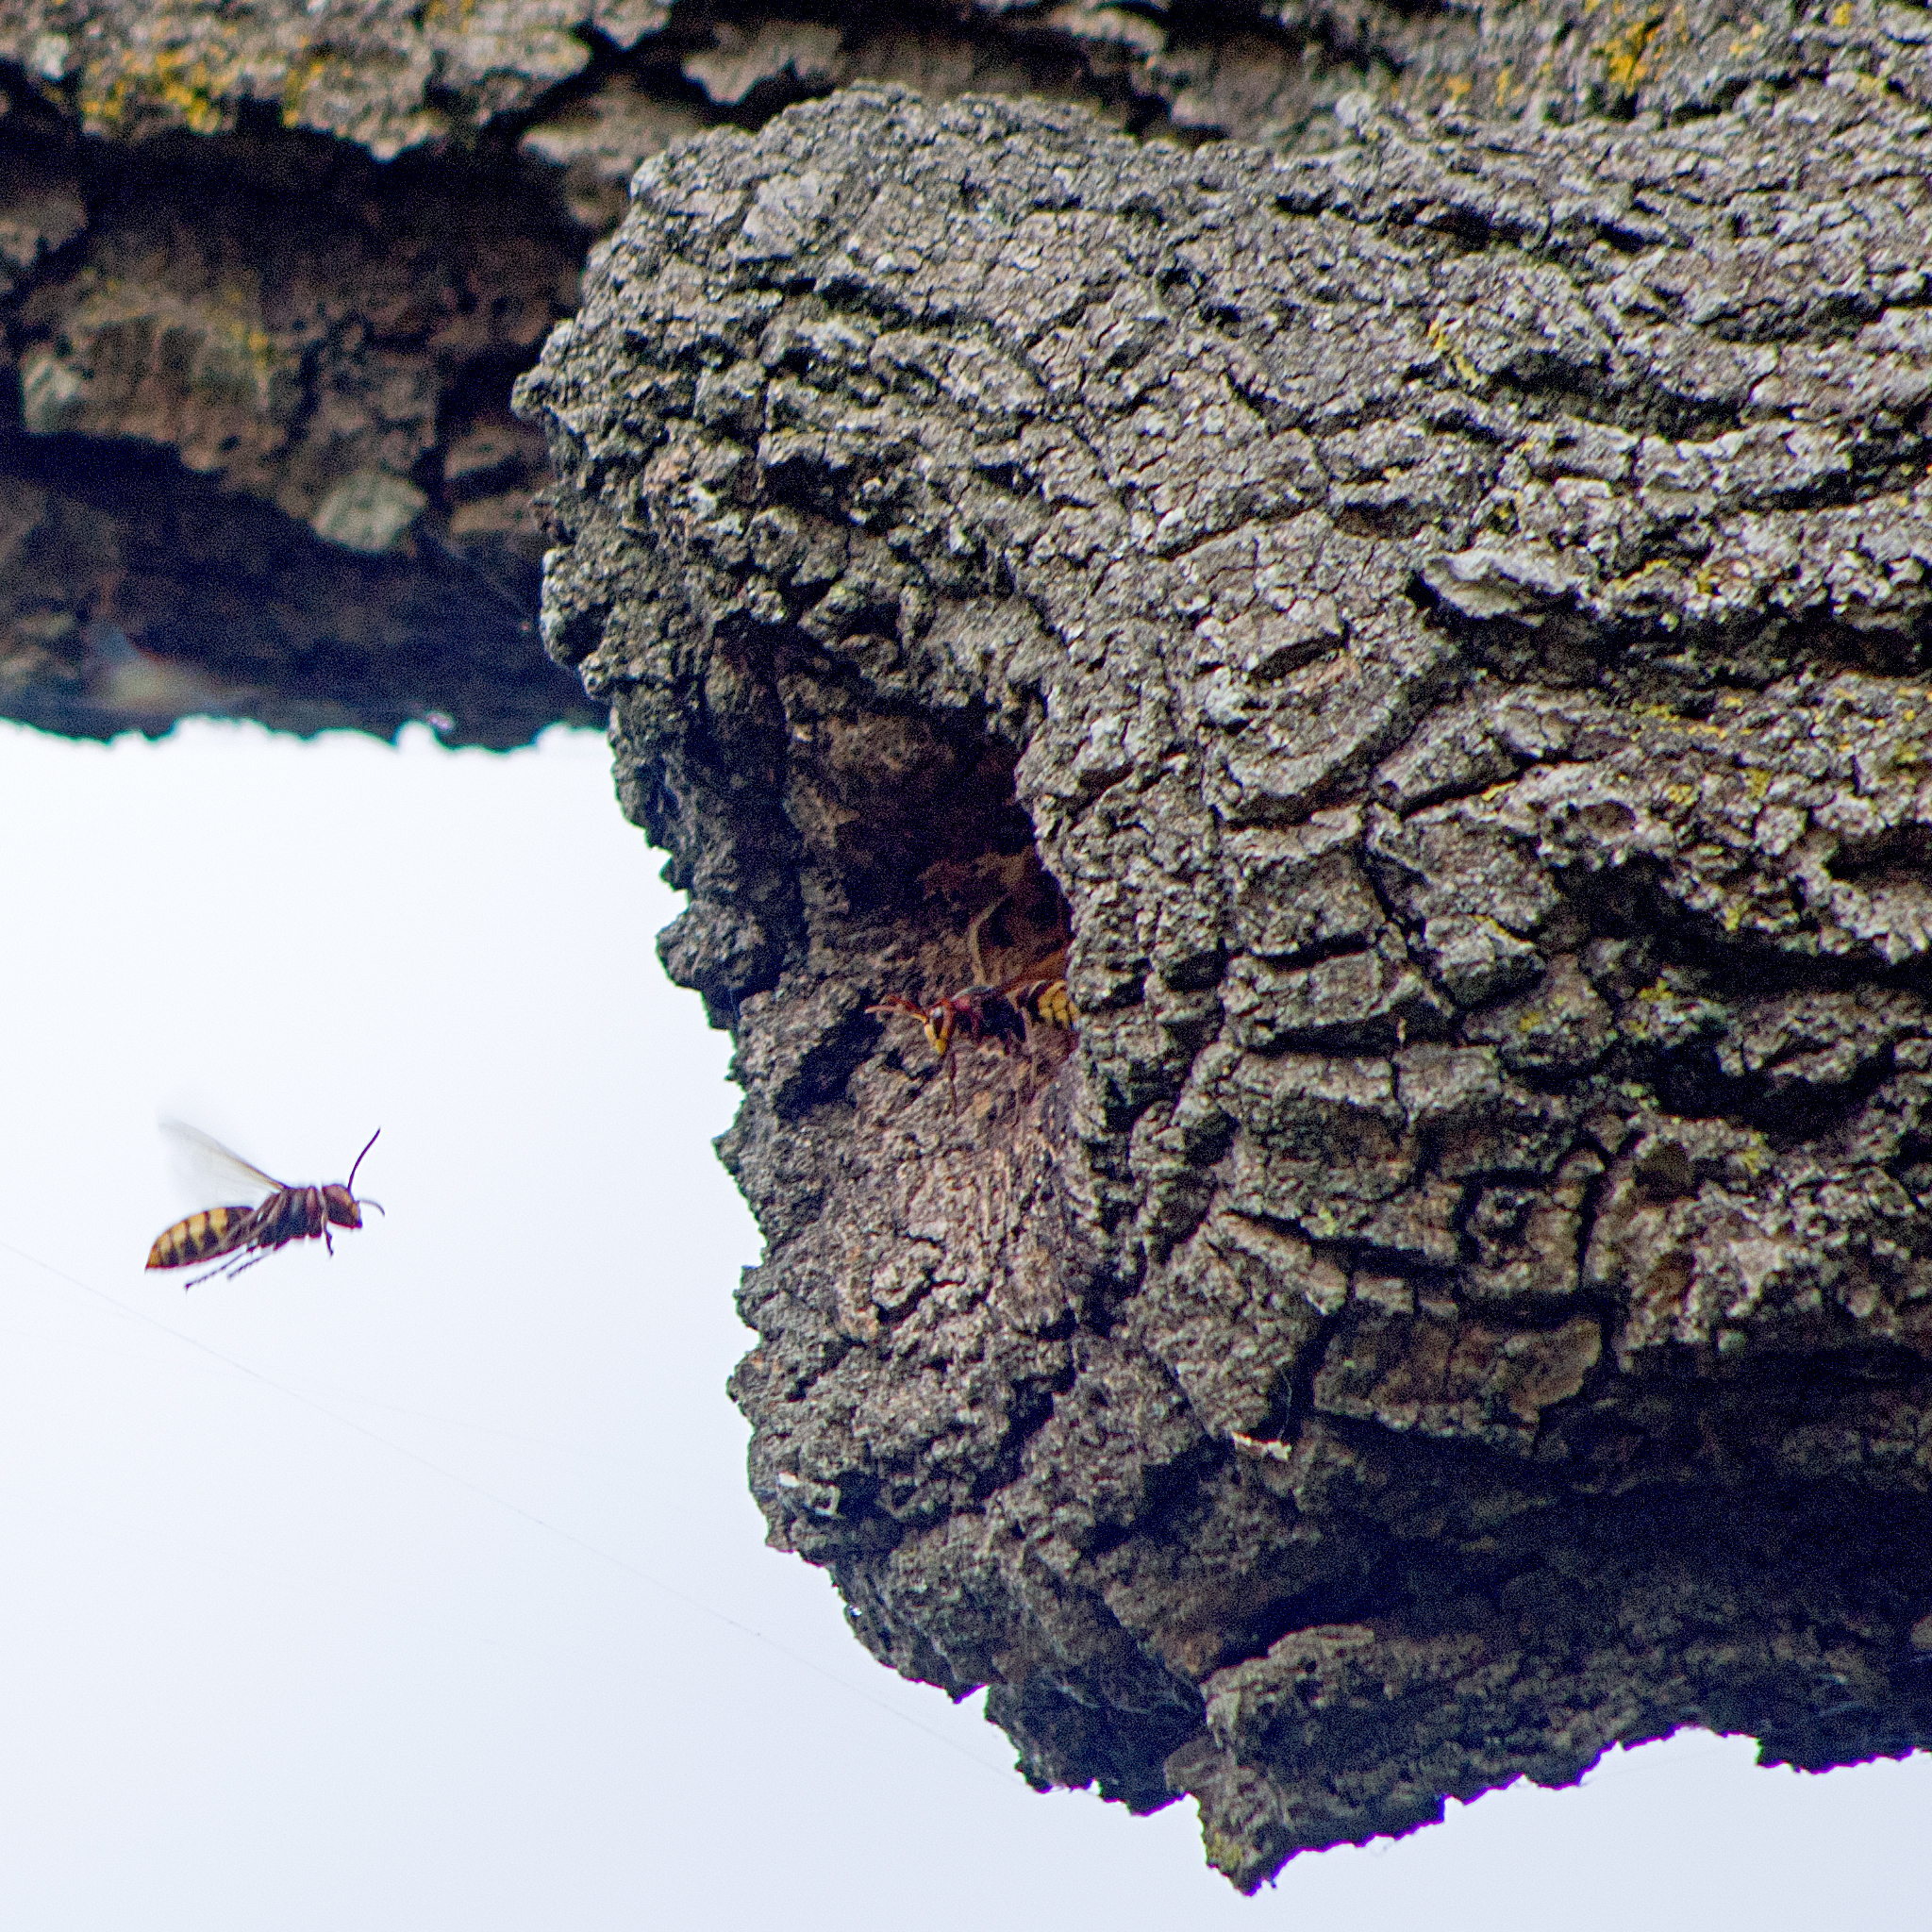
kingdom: Animalia
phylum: Arthropoda
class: Insecta
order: Hymenoptera
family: Vespidae
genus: Vespa
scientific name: Vespa crabro
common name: Hornet
